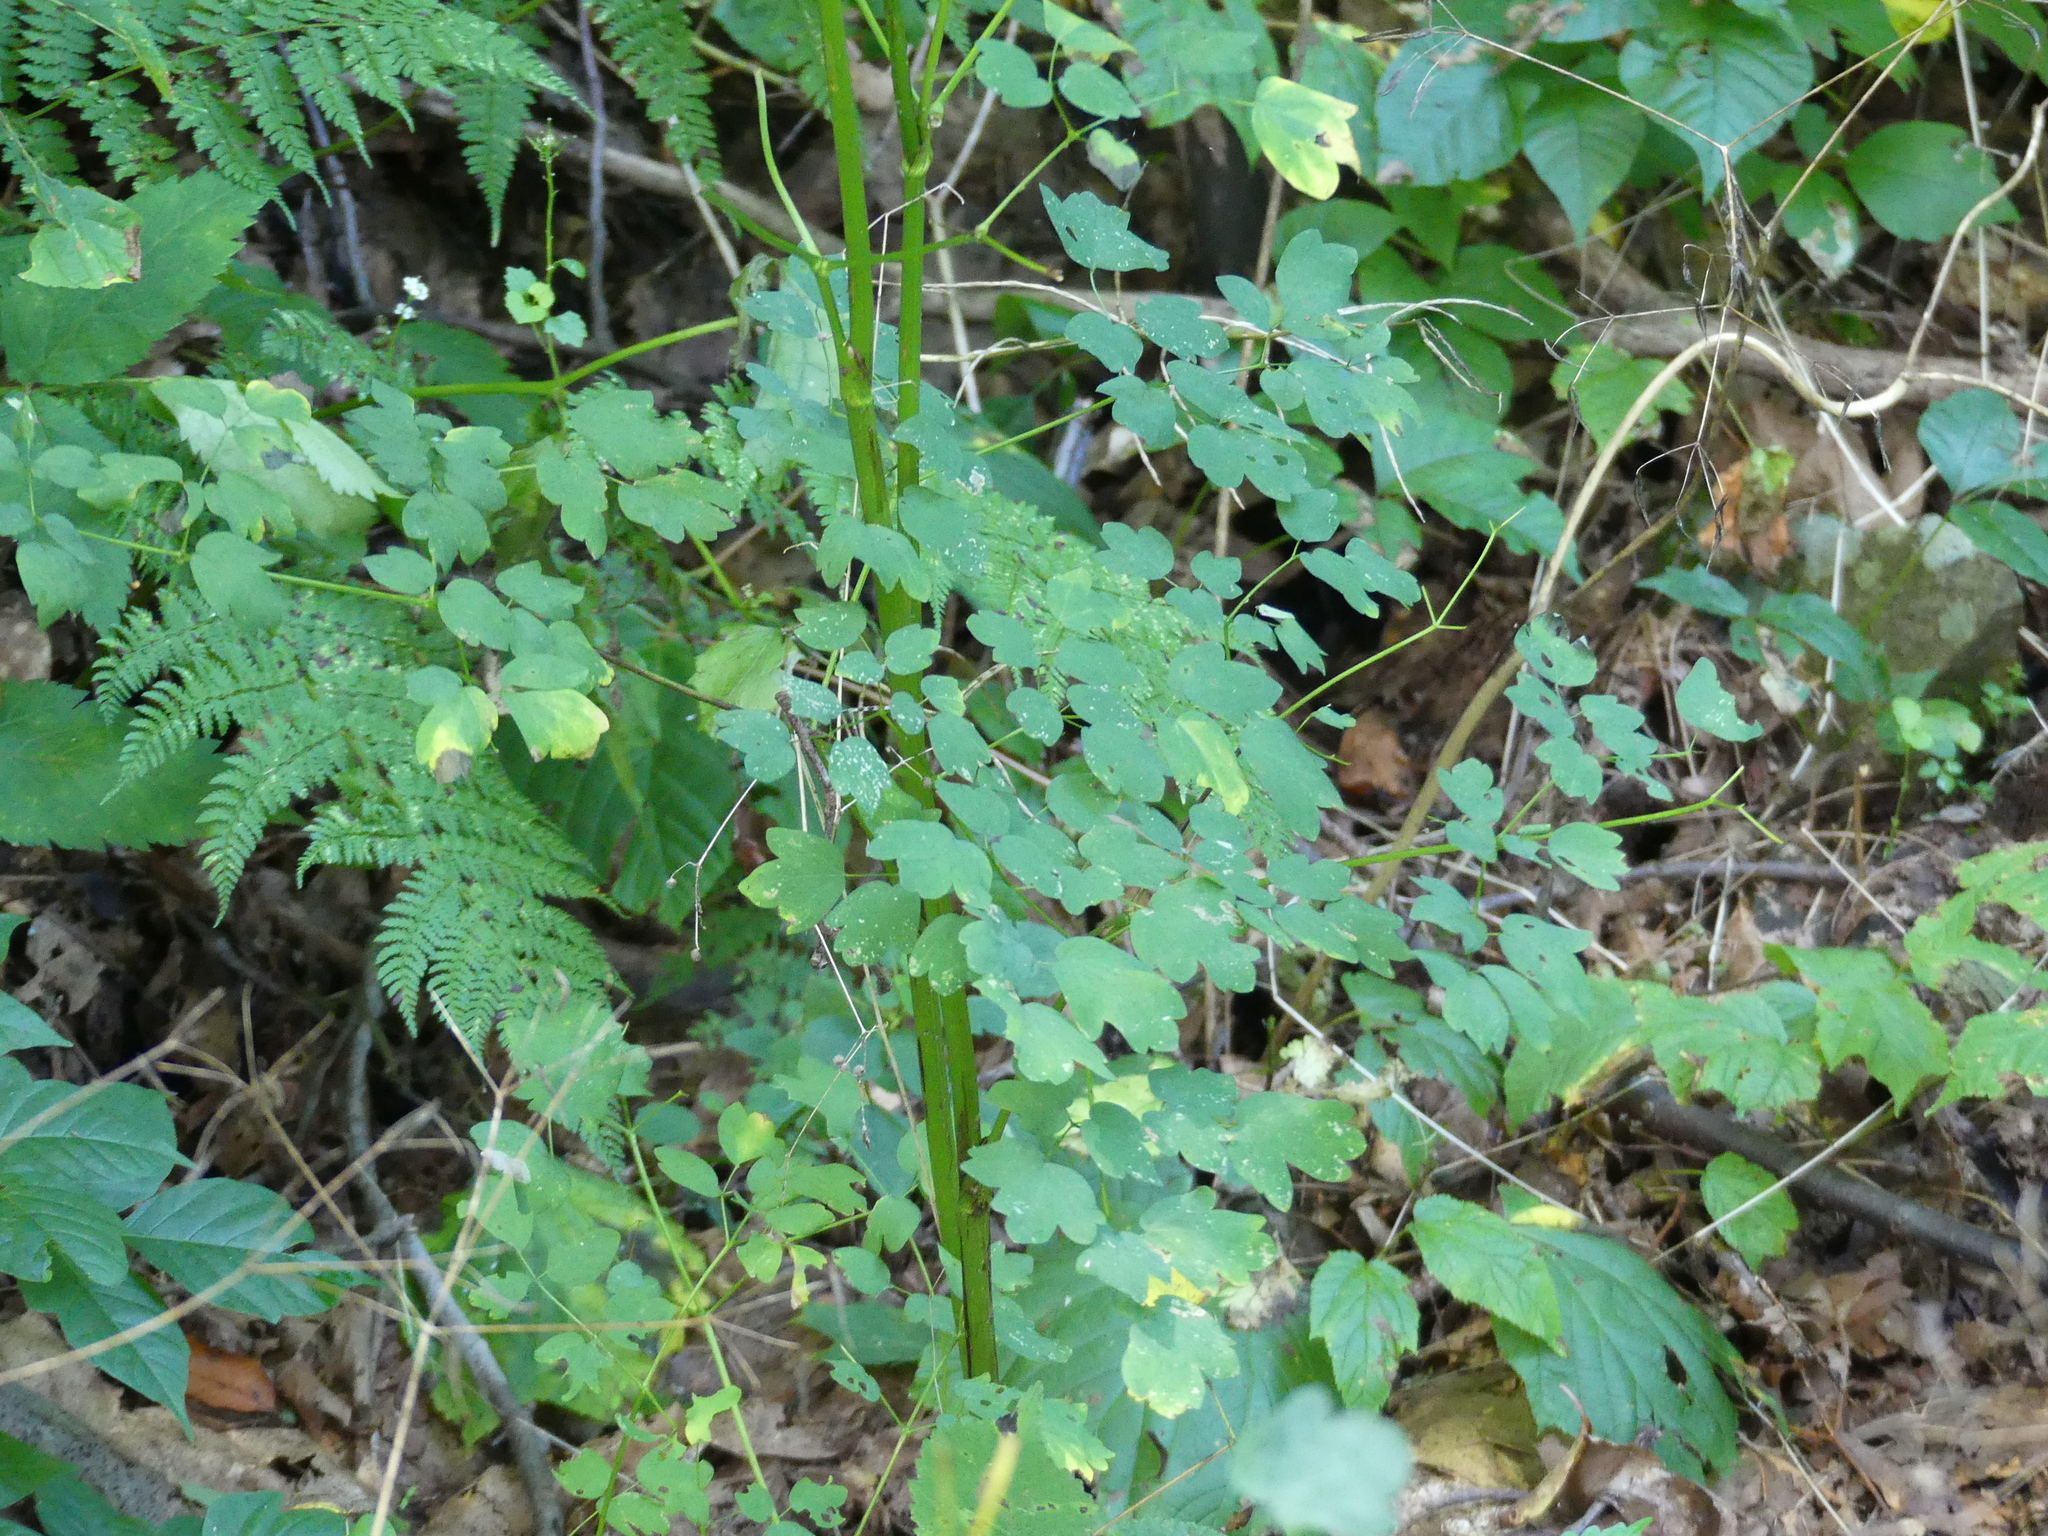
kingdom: Plantae
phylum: Tracheophyta
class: Magnoliopsida
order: Ranunculales
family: Ranunculaceae
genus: Thalictrum
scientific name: Thalictrum pubescens
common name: King-of-the-meadow
